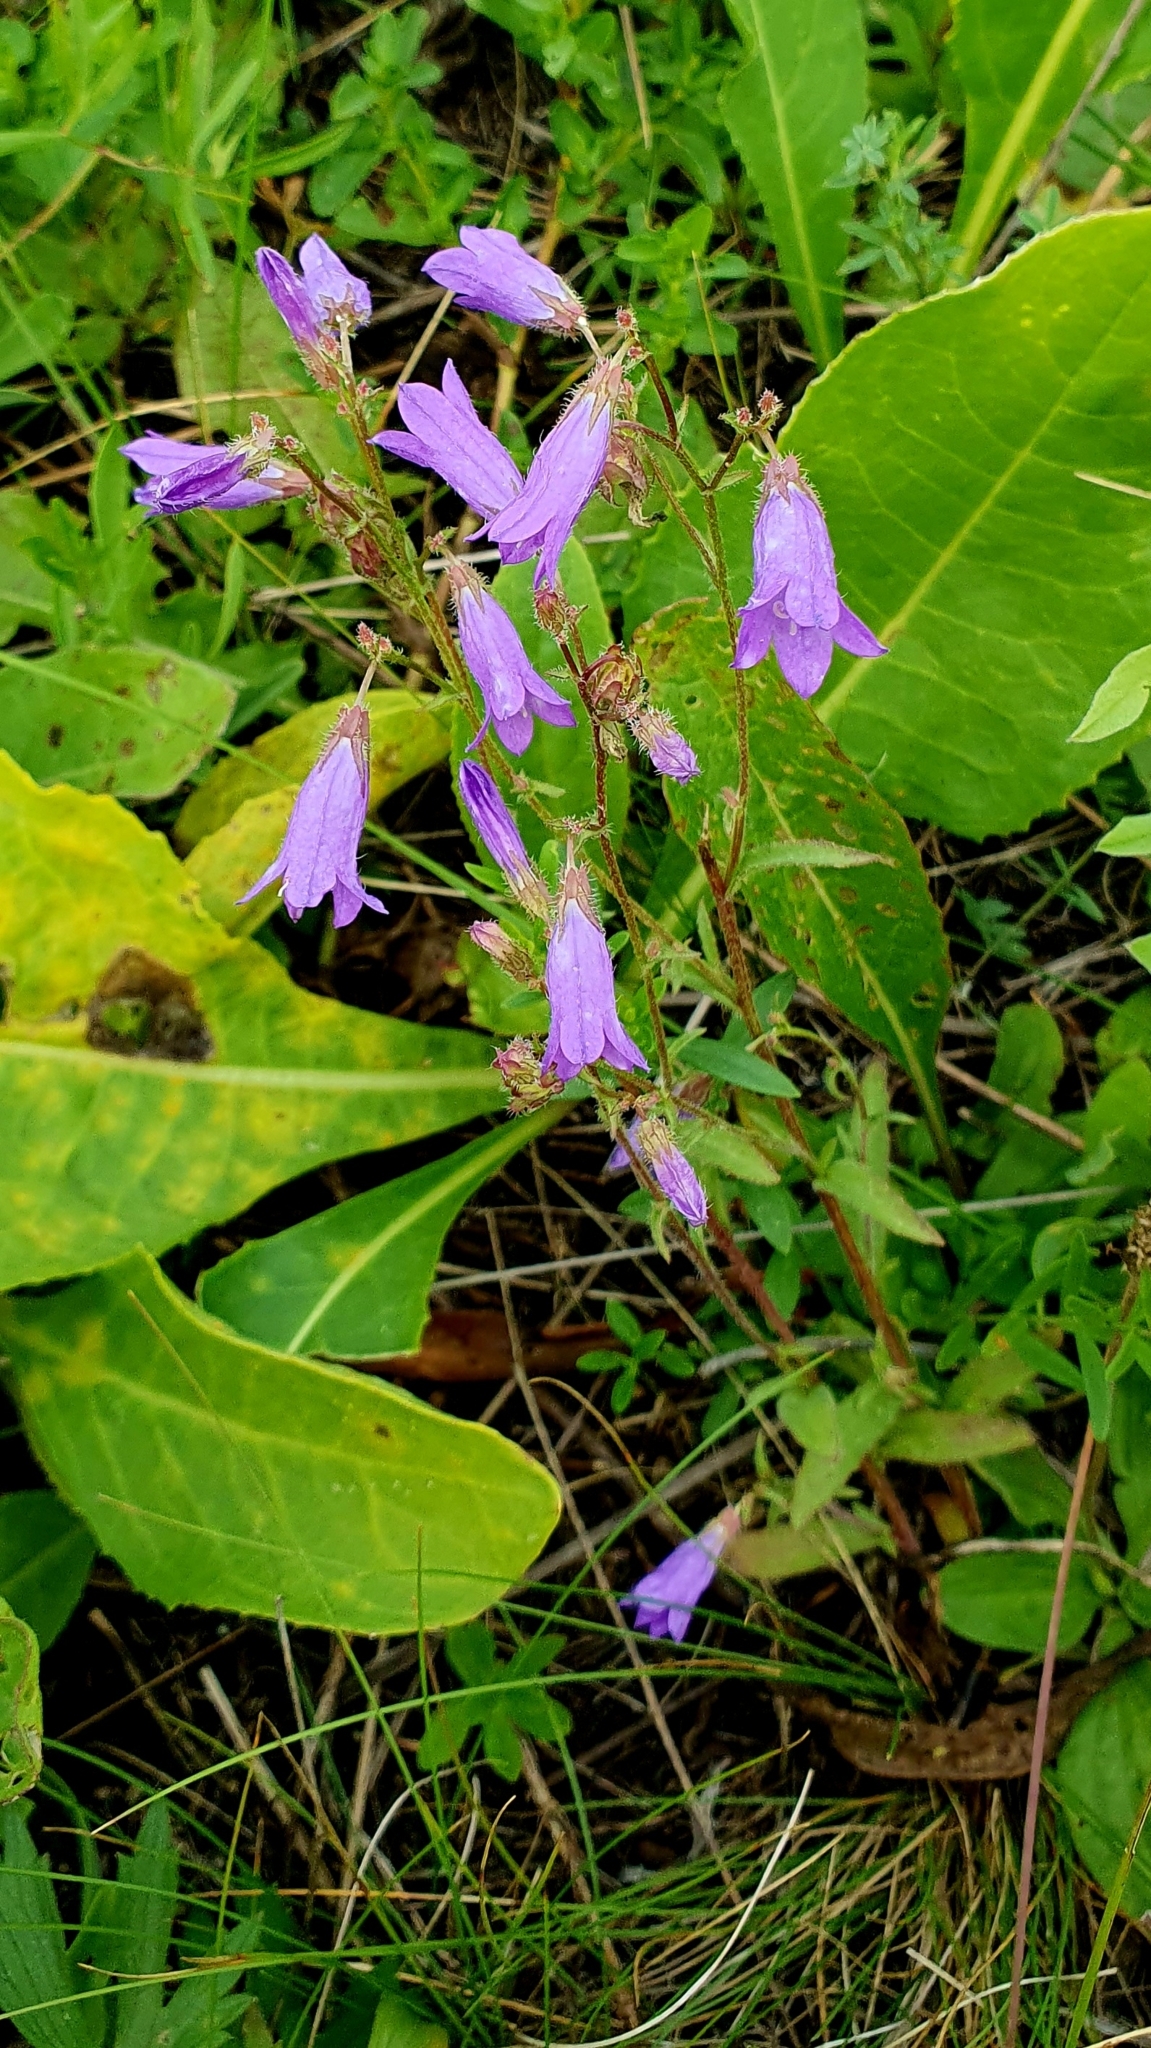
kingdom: Plantae
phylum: Tracheophyta
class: Magnoliopsida
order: Asterales
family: Campanulaceae
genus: Campanula
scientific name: Campanula sibirica
